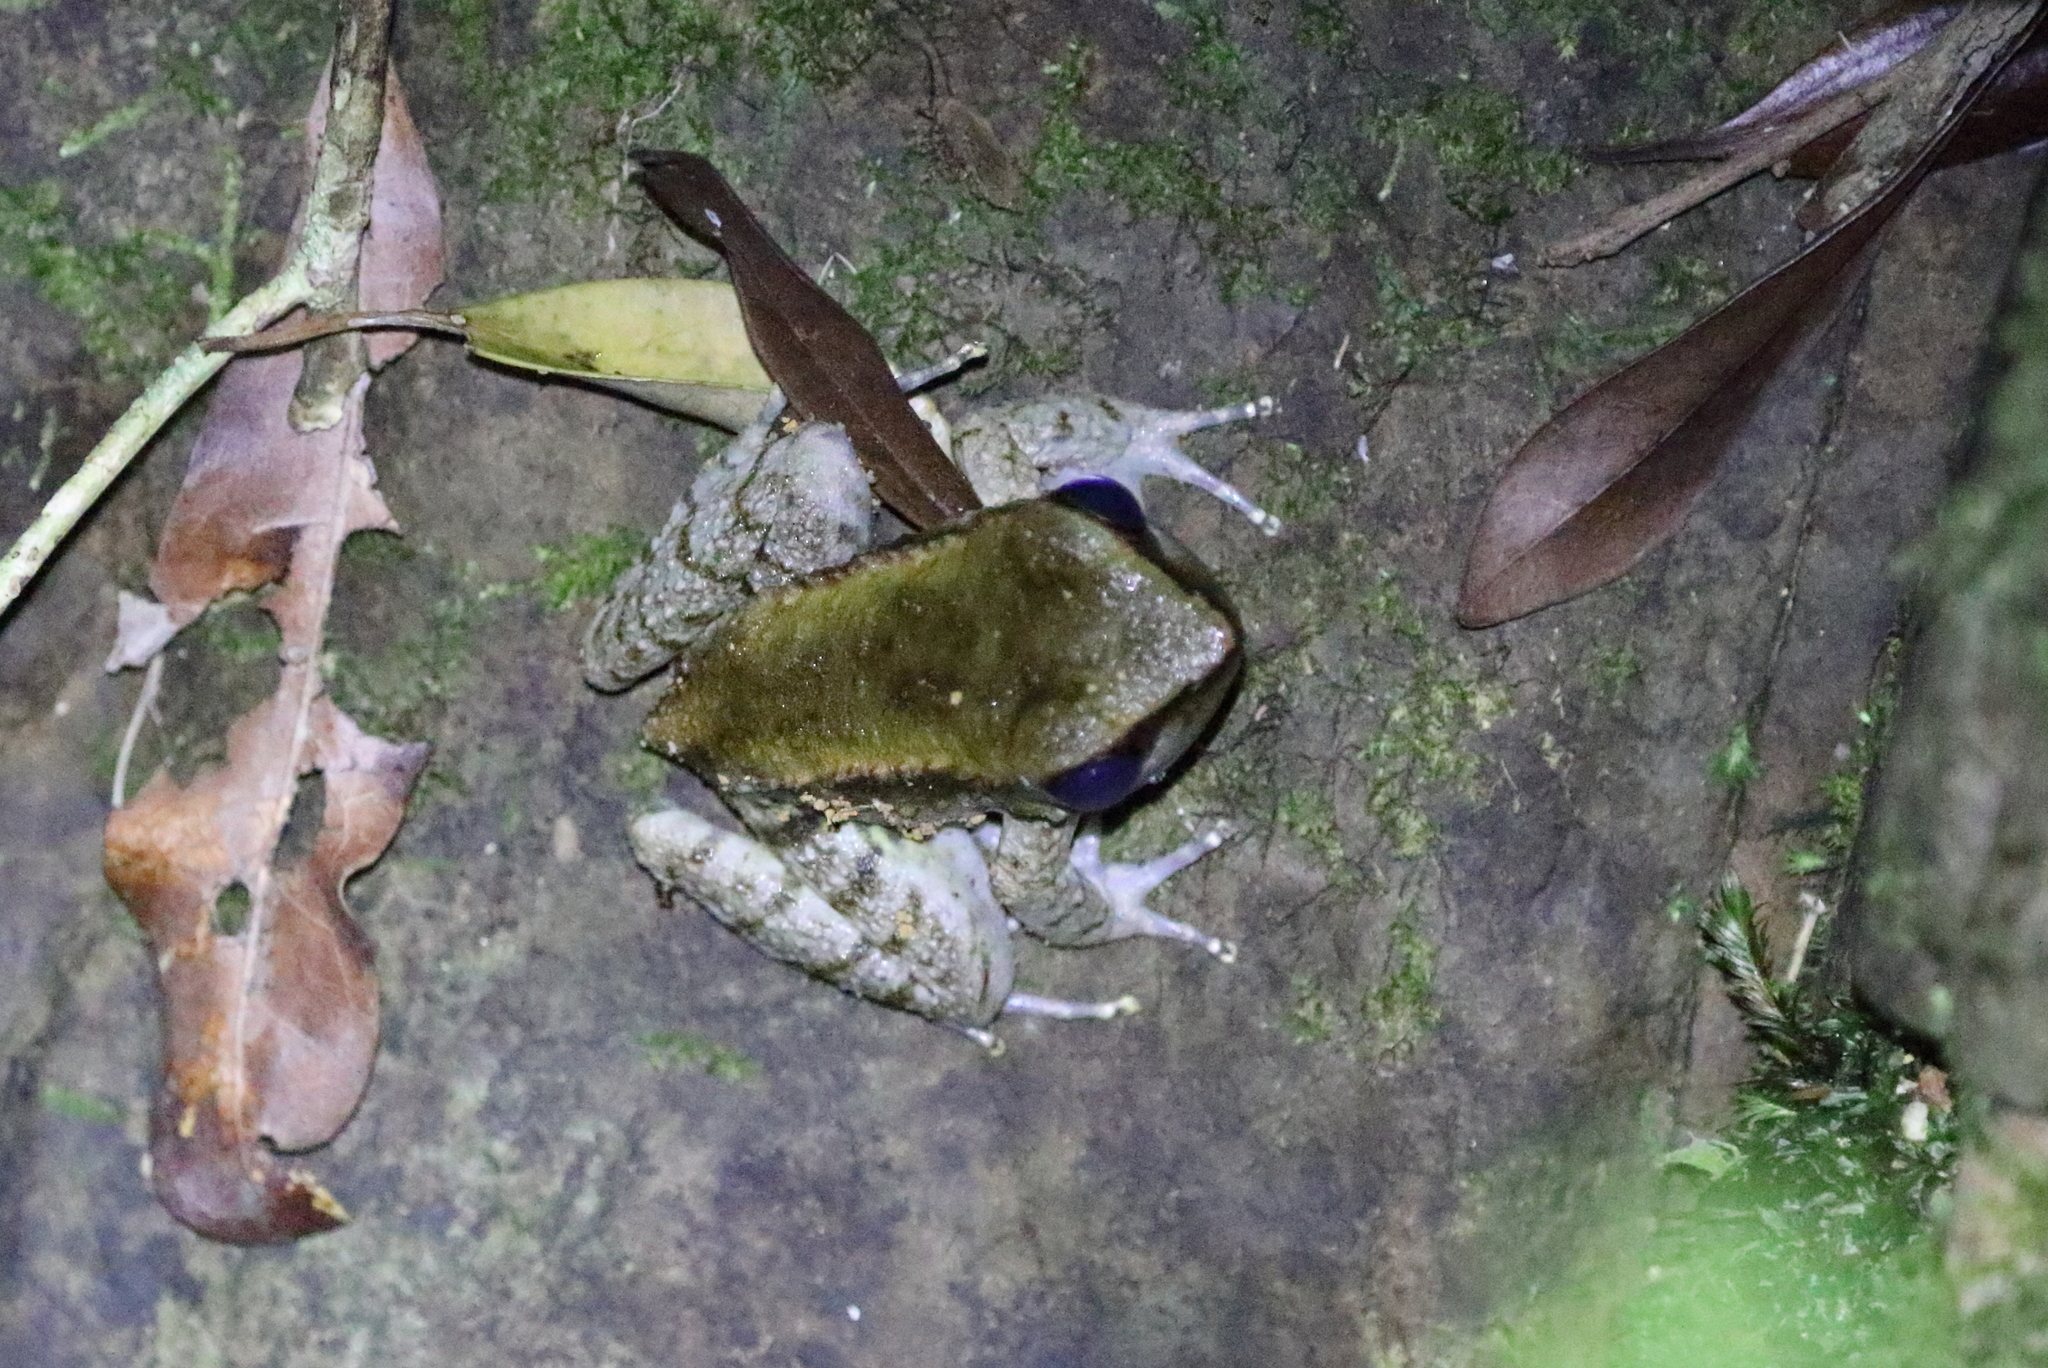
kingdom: Animalia
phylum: Chordata
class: Amphibia
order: Anura
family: Ranidae
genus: Babina
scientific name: Babina holsti
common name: Holst's frog
